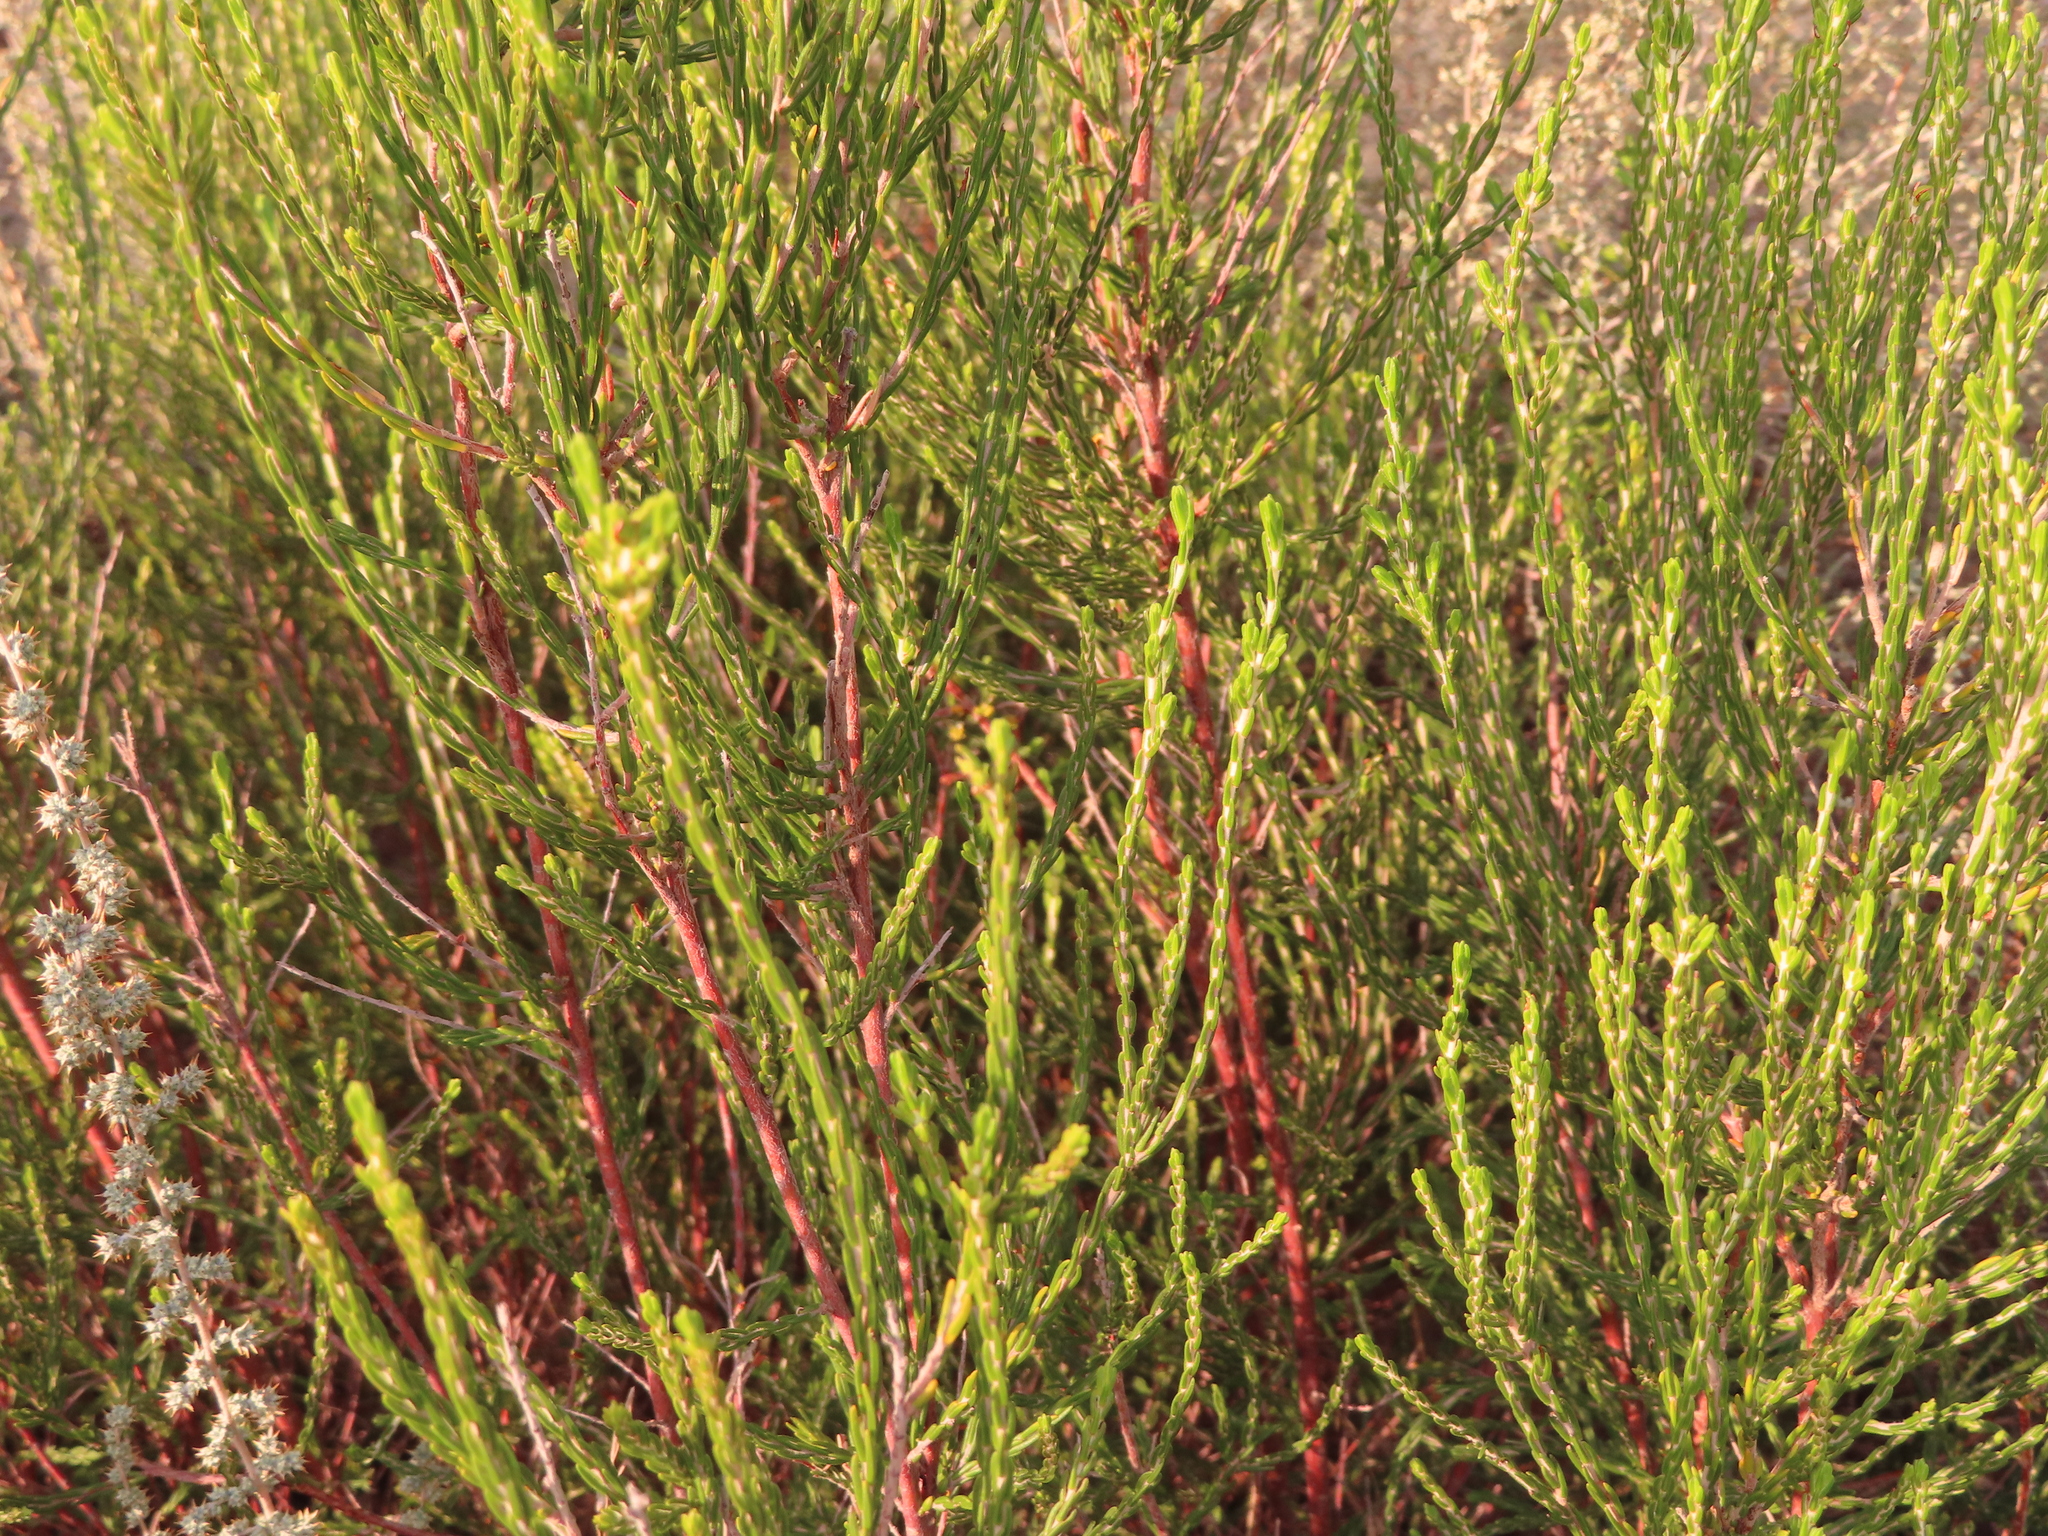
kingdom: Plantae
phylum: Tracheophyta
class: Magnoliopsida
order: Malvales
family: Thymelaeaceae
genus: Passerina
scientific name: Passerina corymbosa
